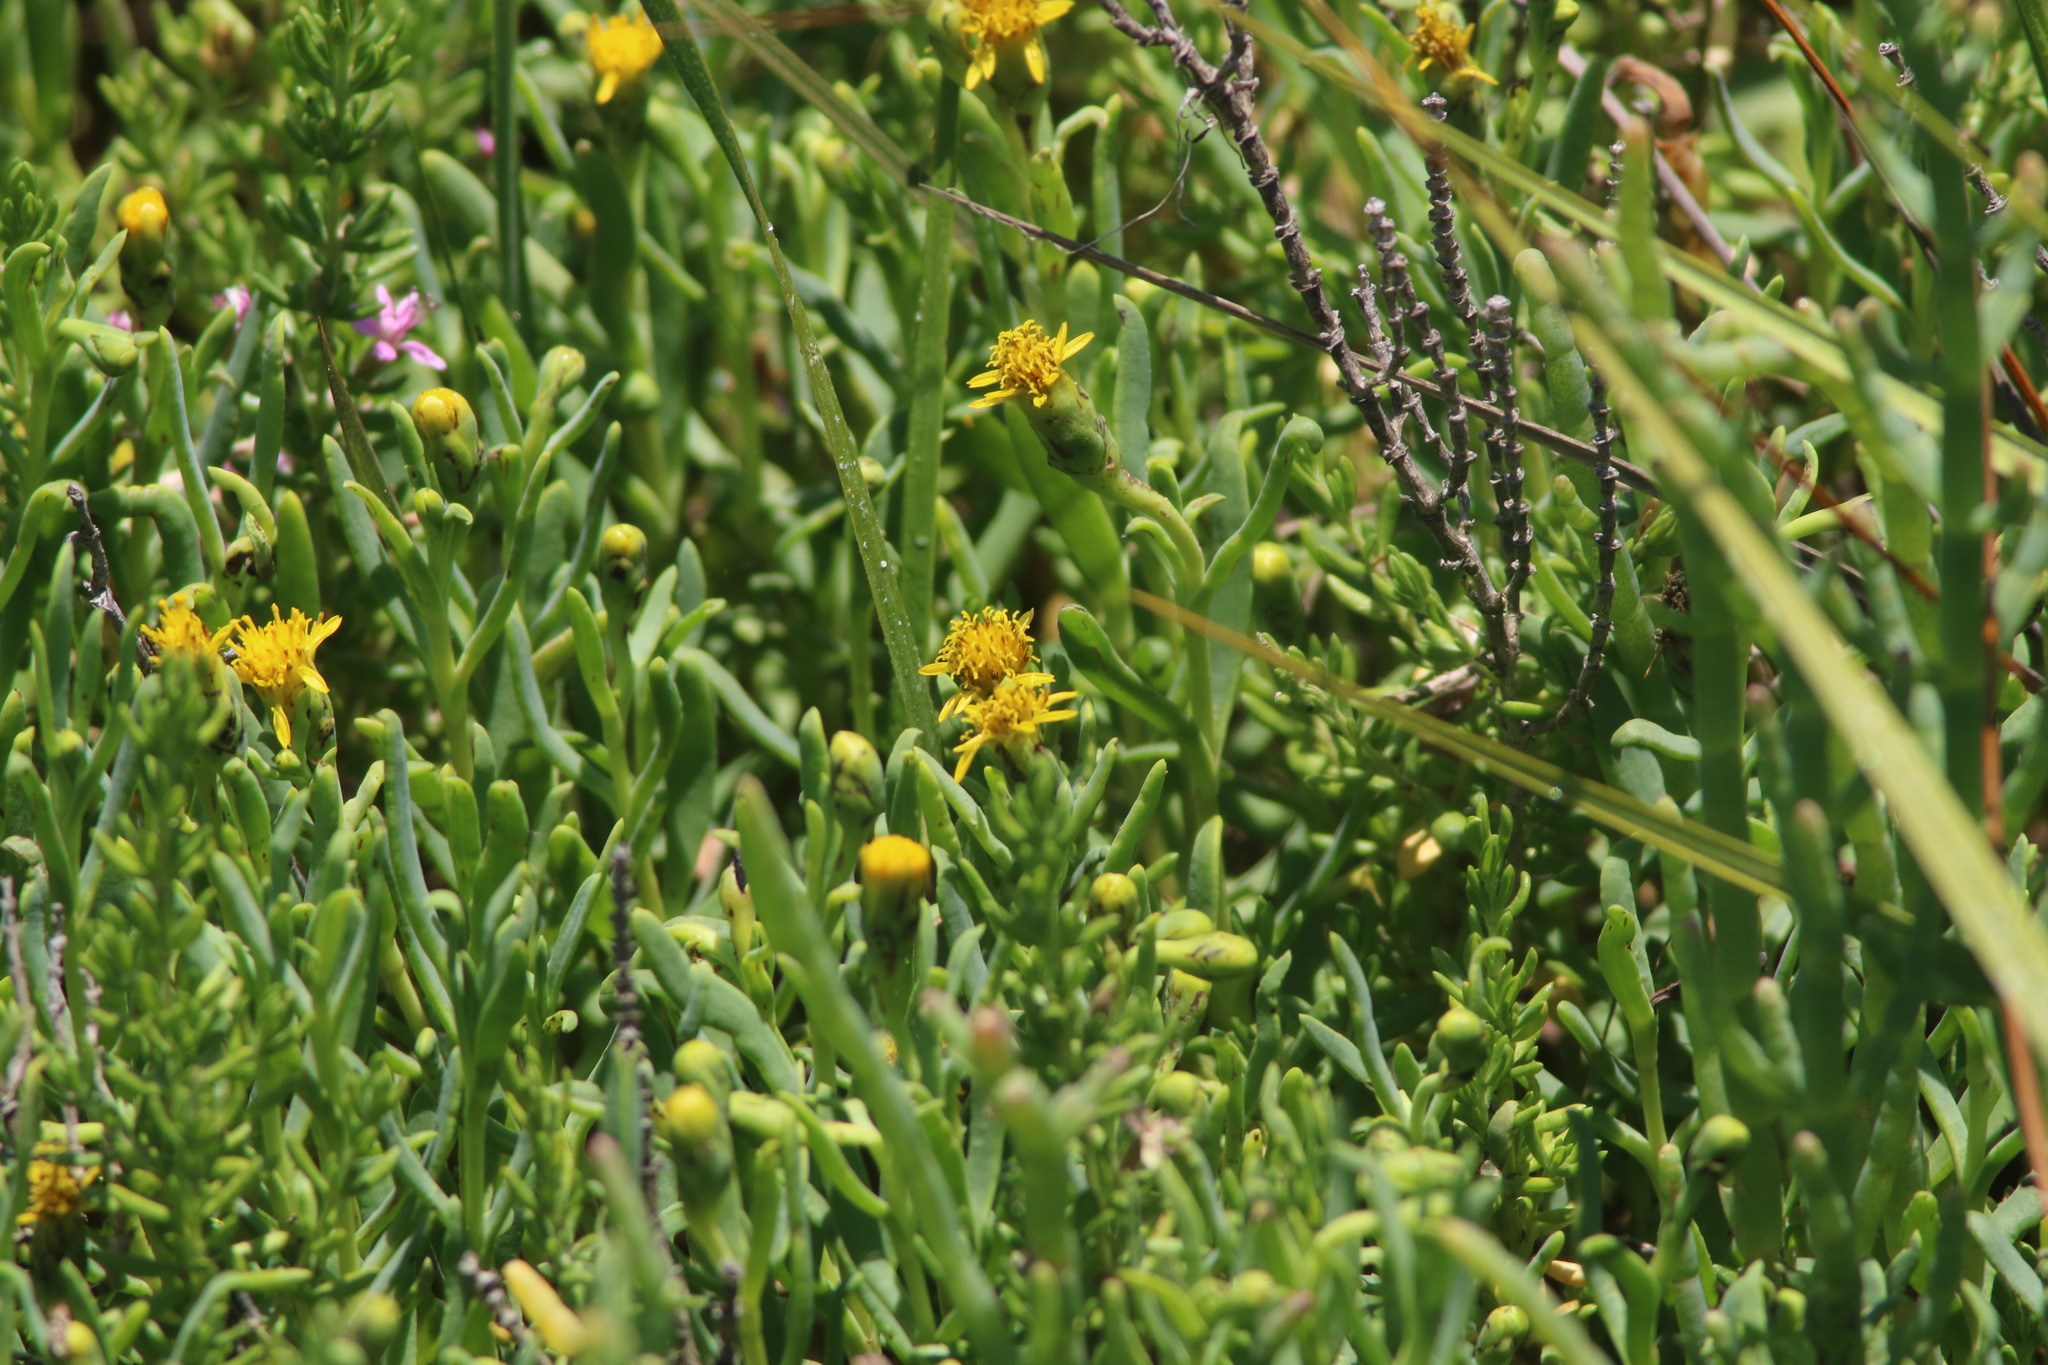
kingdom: Plantae
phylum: Tracheophyta
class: Magnoliopsida
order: Asterales
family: Asteraceae
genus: Jaumea
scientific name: Jaumea carnosa
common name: Fleshy jaumea
